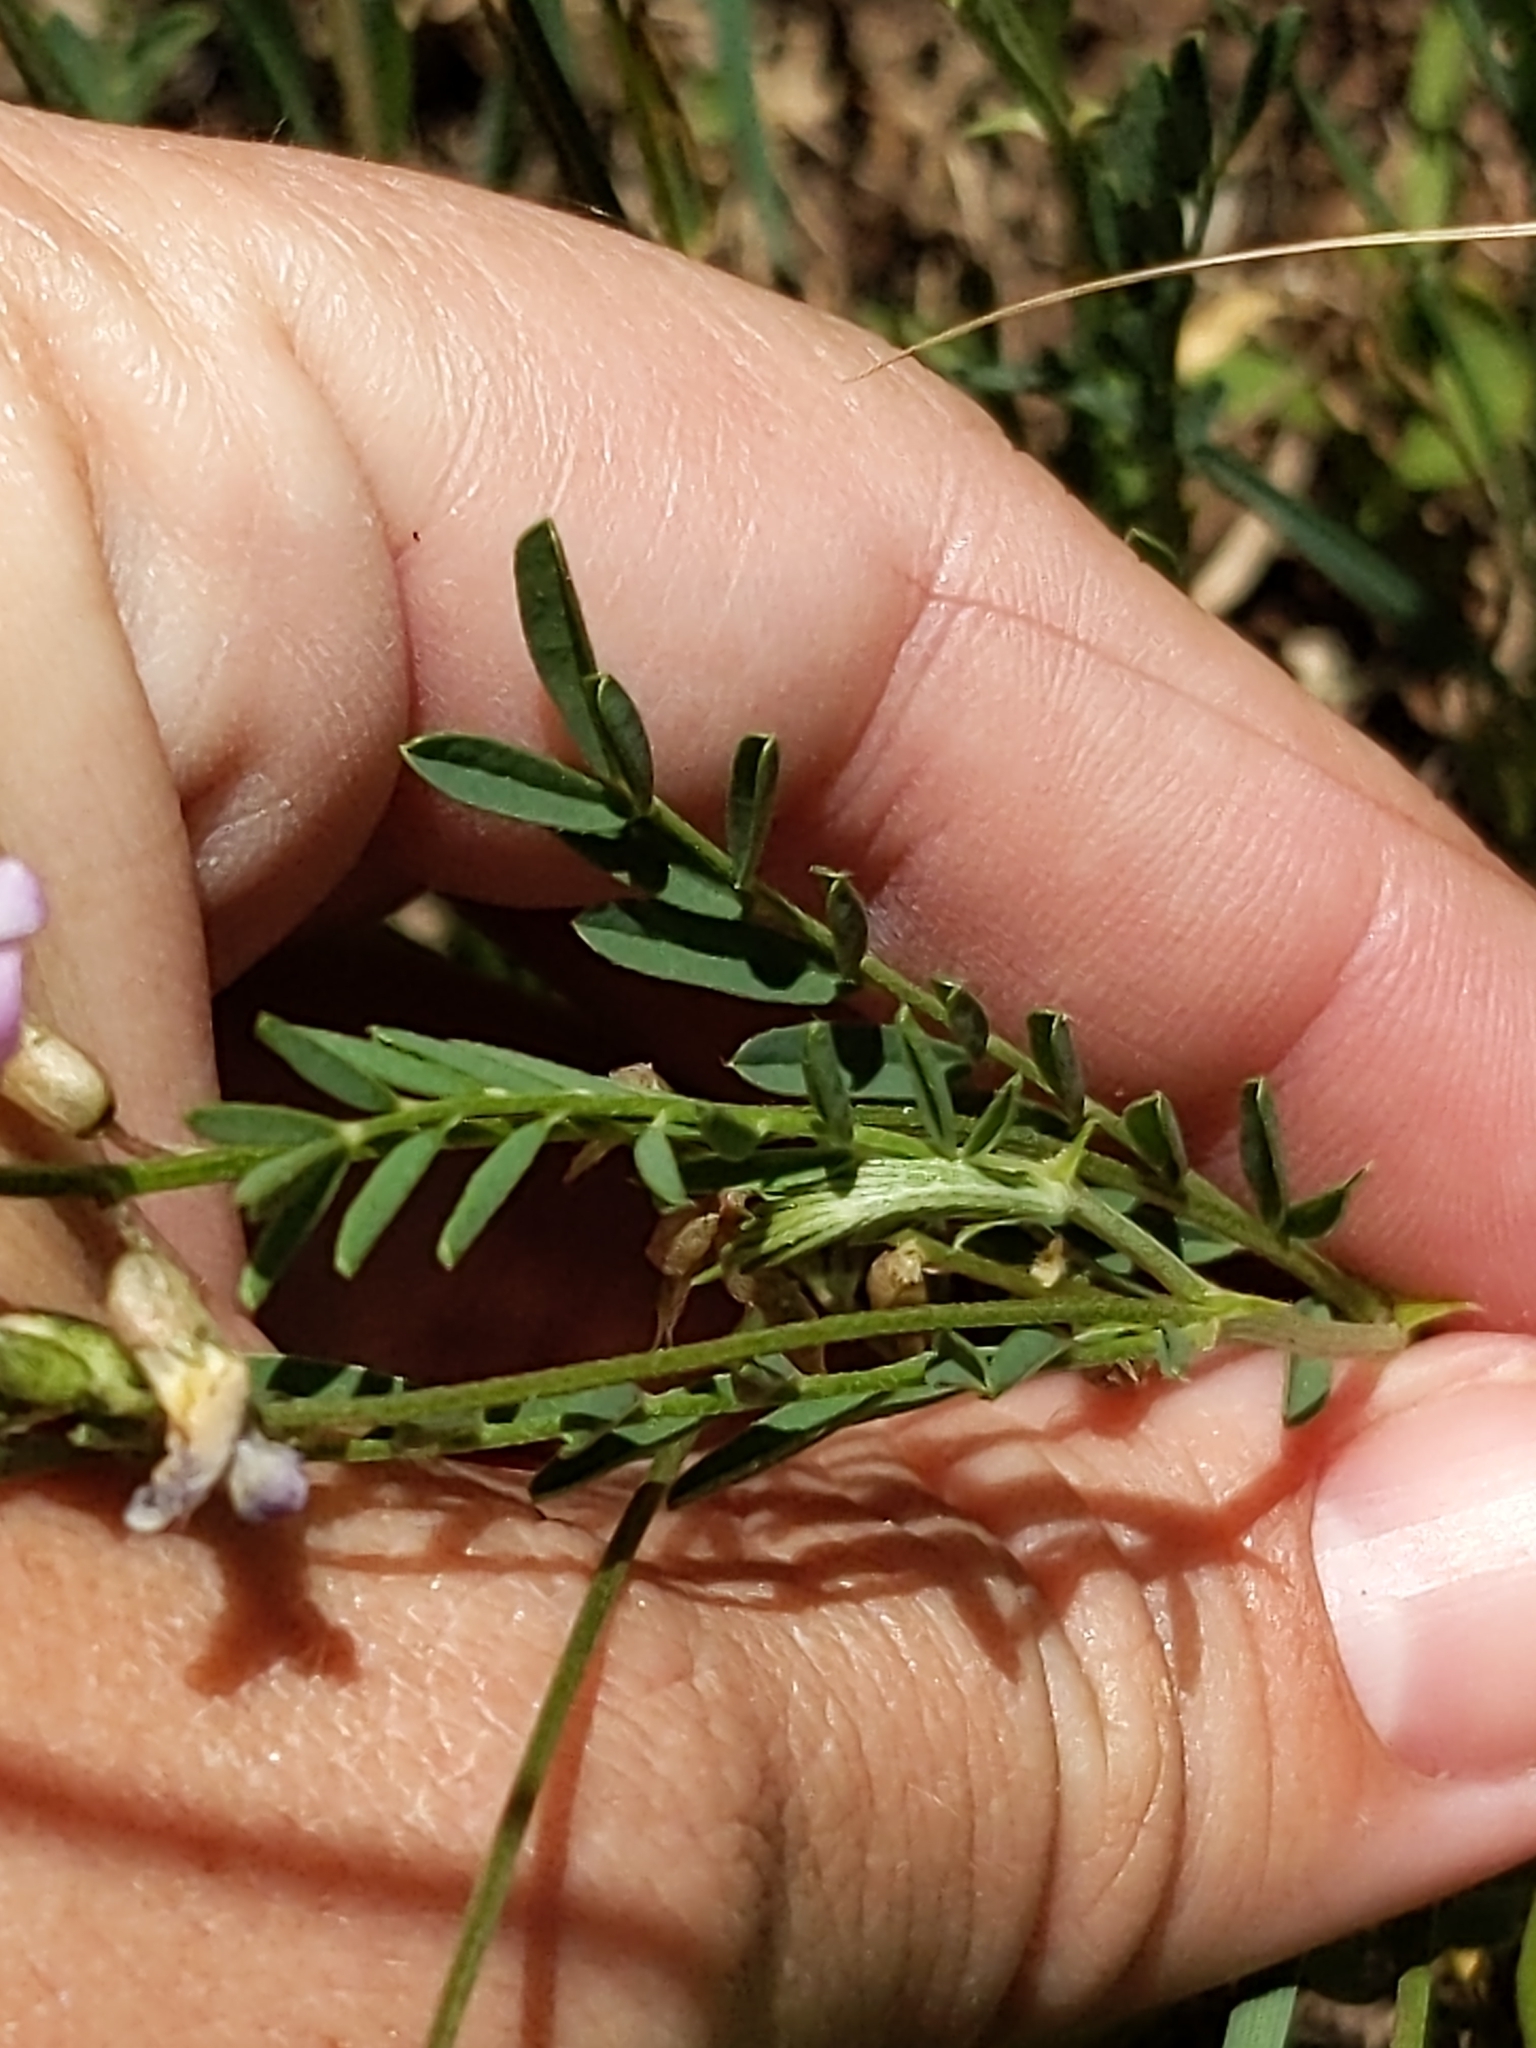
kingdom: Plantae
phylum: Tracheophyta
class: Magnoliopsida
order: Fabales
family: Fabaceae
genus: Astragalus
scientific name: Astragalus flexuosus
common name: Pliant milk-vetch
